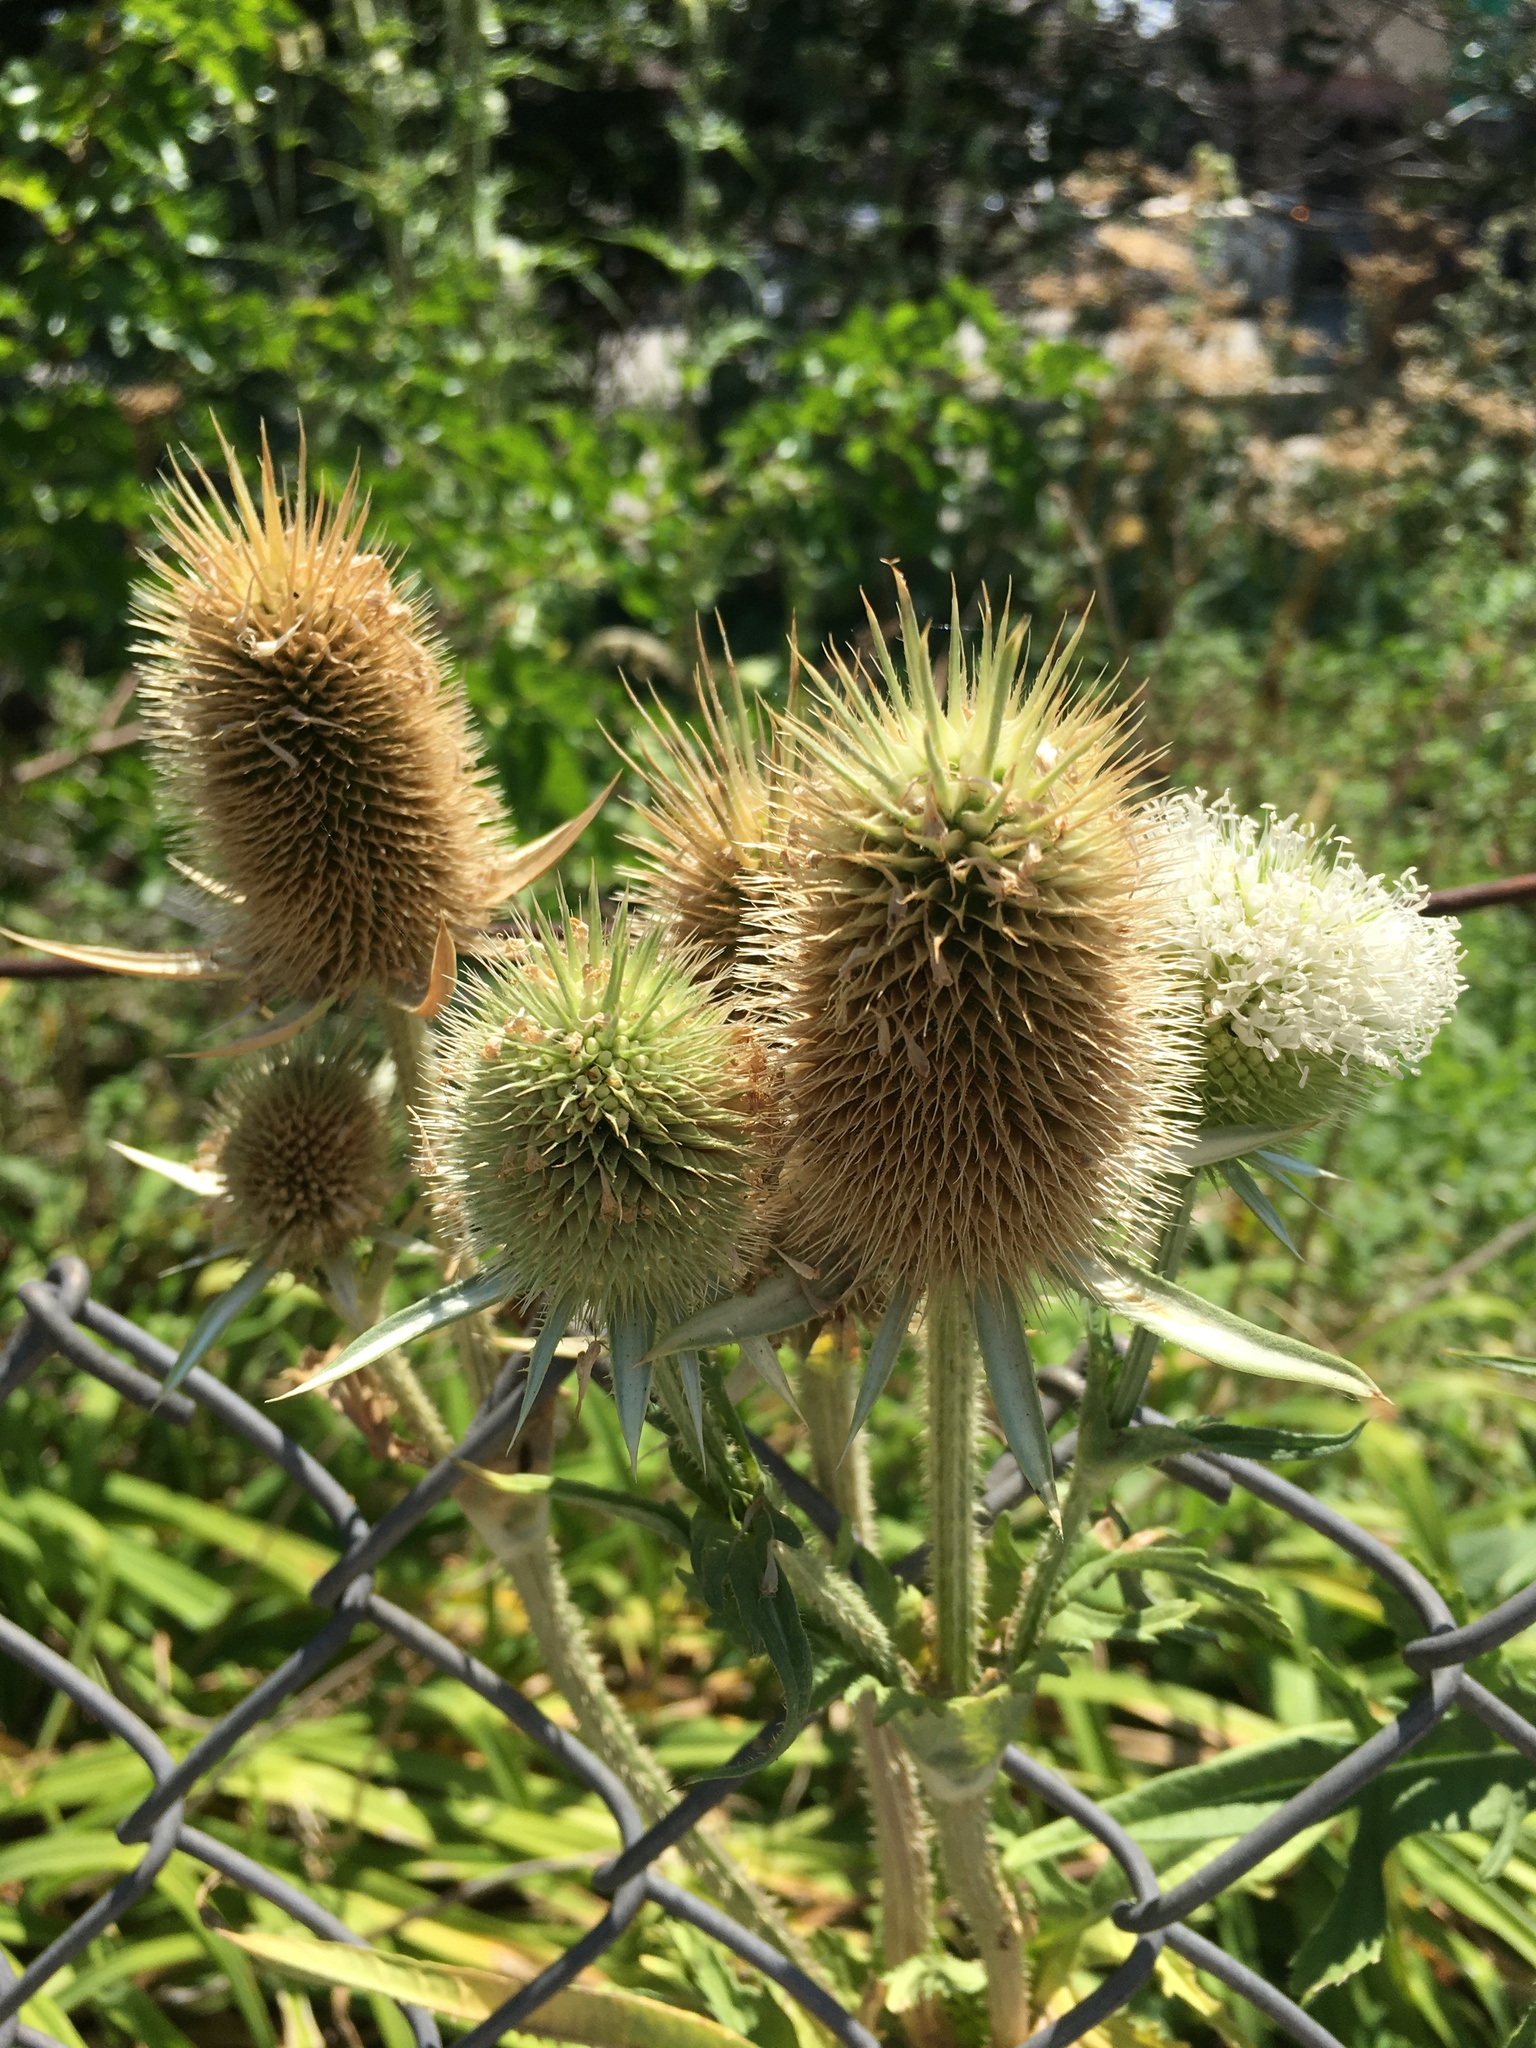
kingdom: Plantae
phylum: Tracheophyta
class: Magnoliopsida
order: Dipsacales
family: Caprifoliaceae
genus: Dipsacus
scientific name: Dipsacus laciniatus
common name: Cut-leaved teasel
